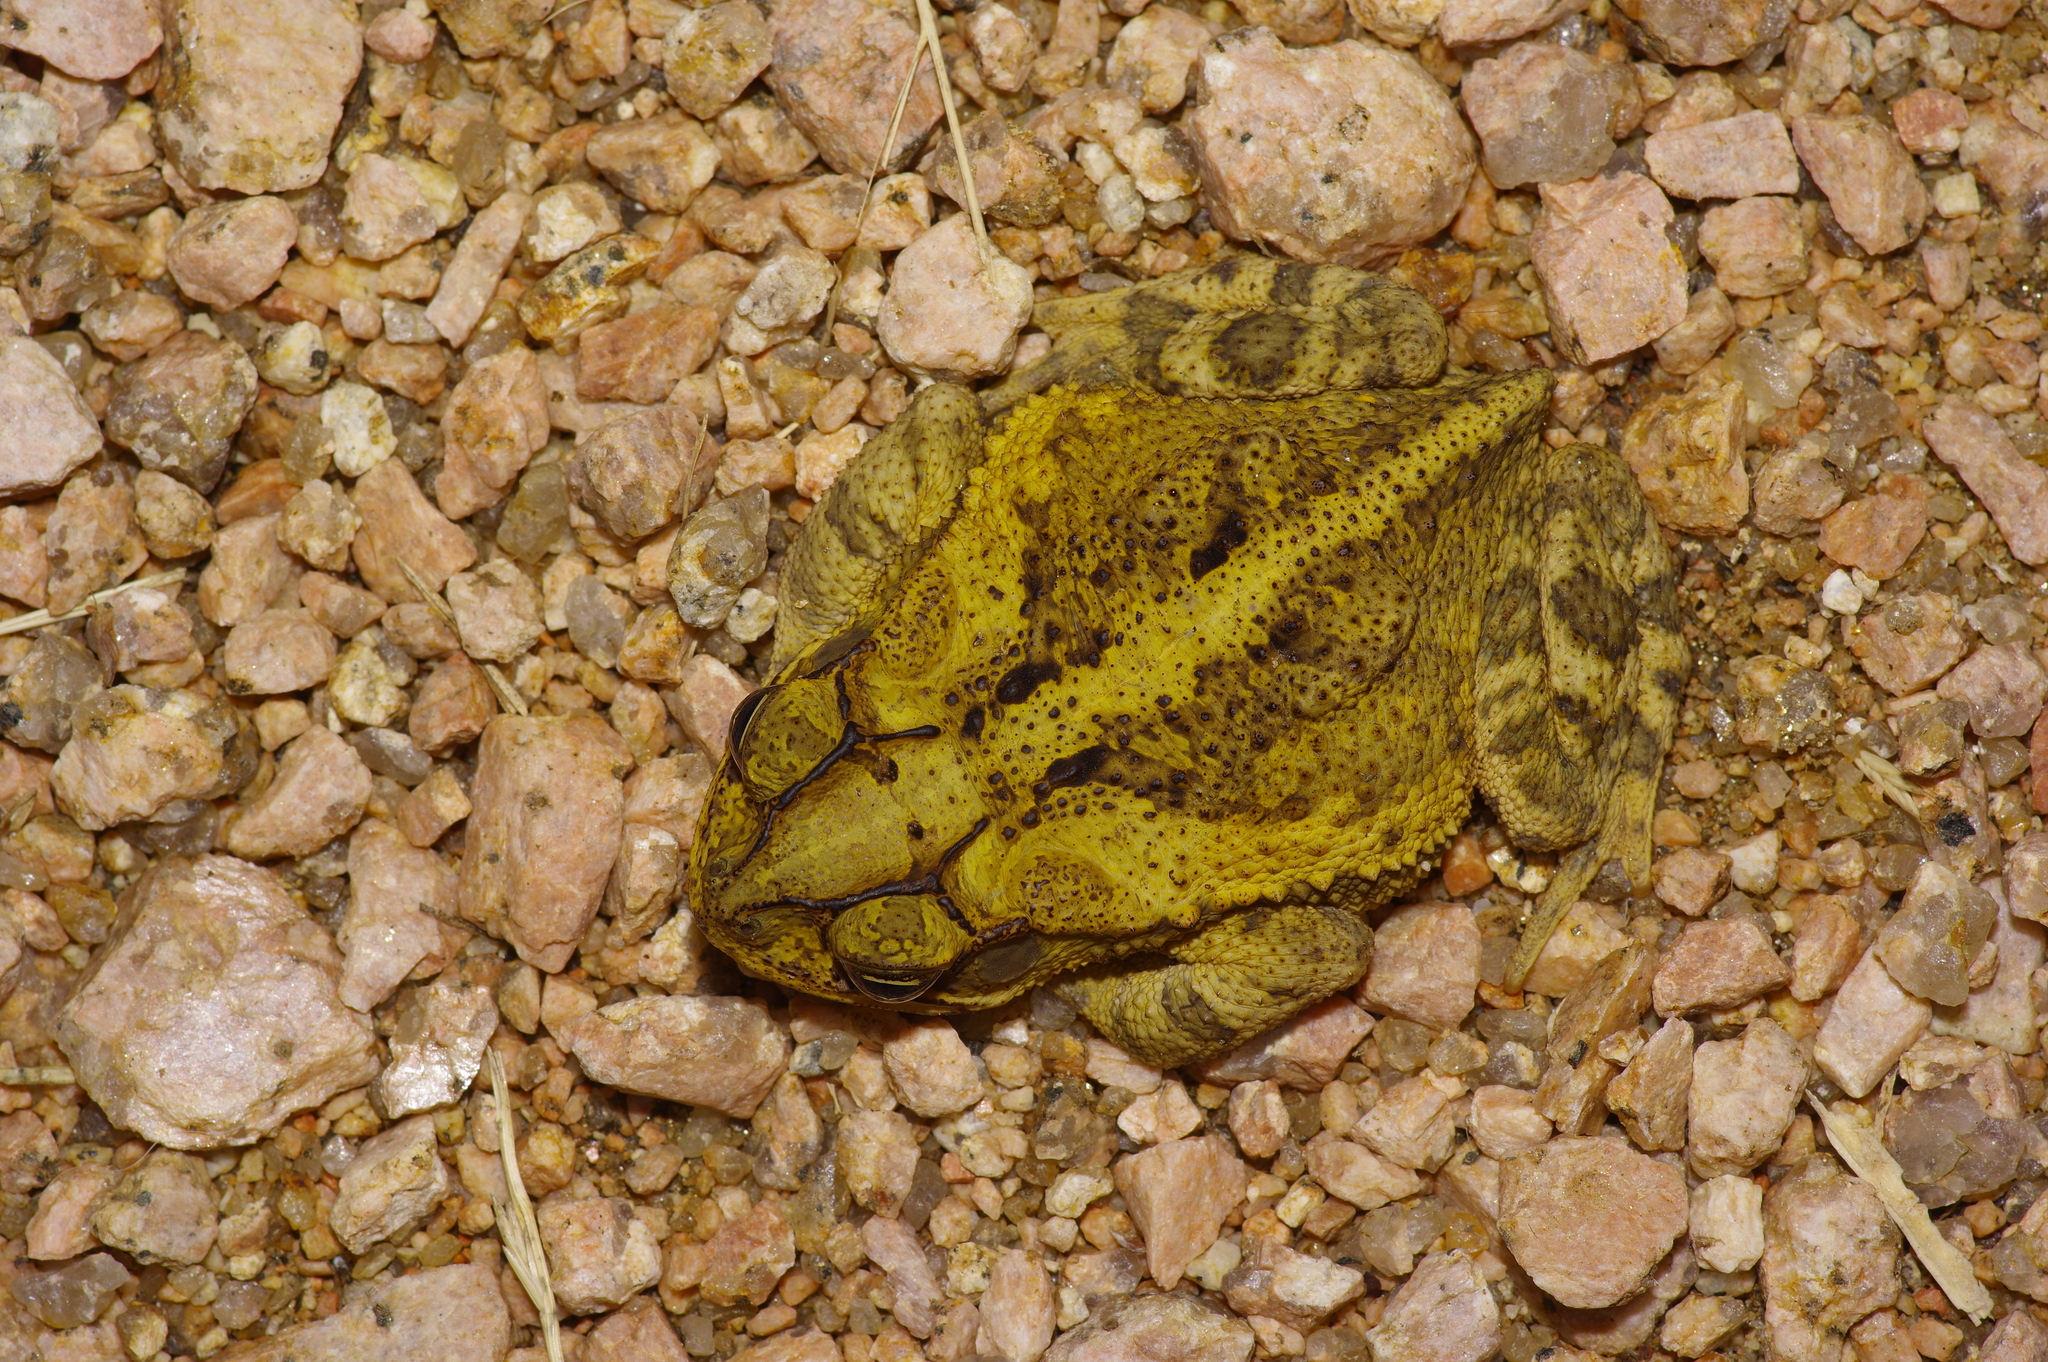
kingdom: Animalia
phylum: Chordata
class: Amphibia
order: Anura
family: Bufonidae
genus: Incilius
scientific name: Incilius nebulifer
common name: Gulf coast toad
